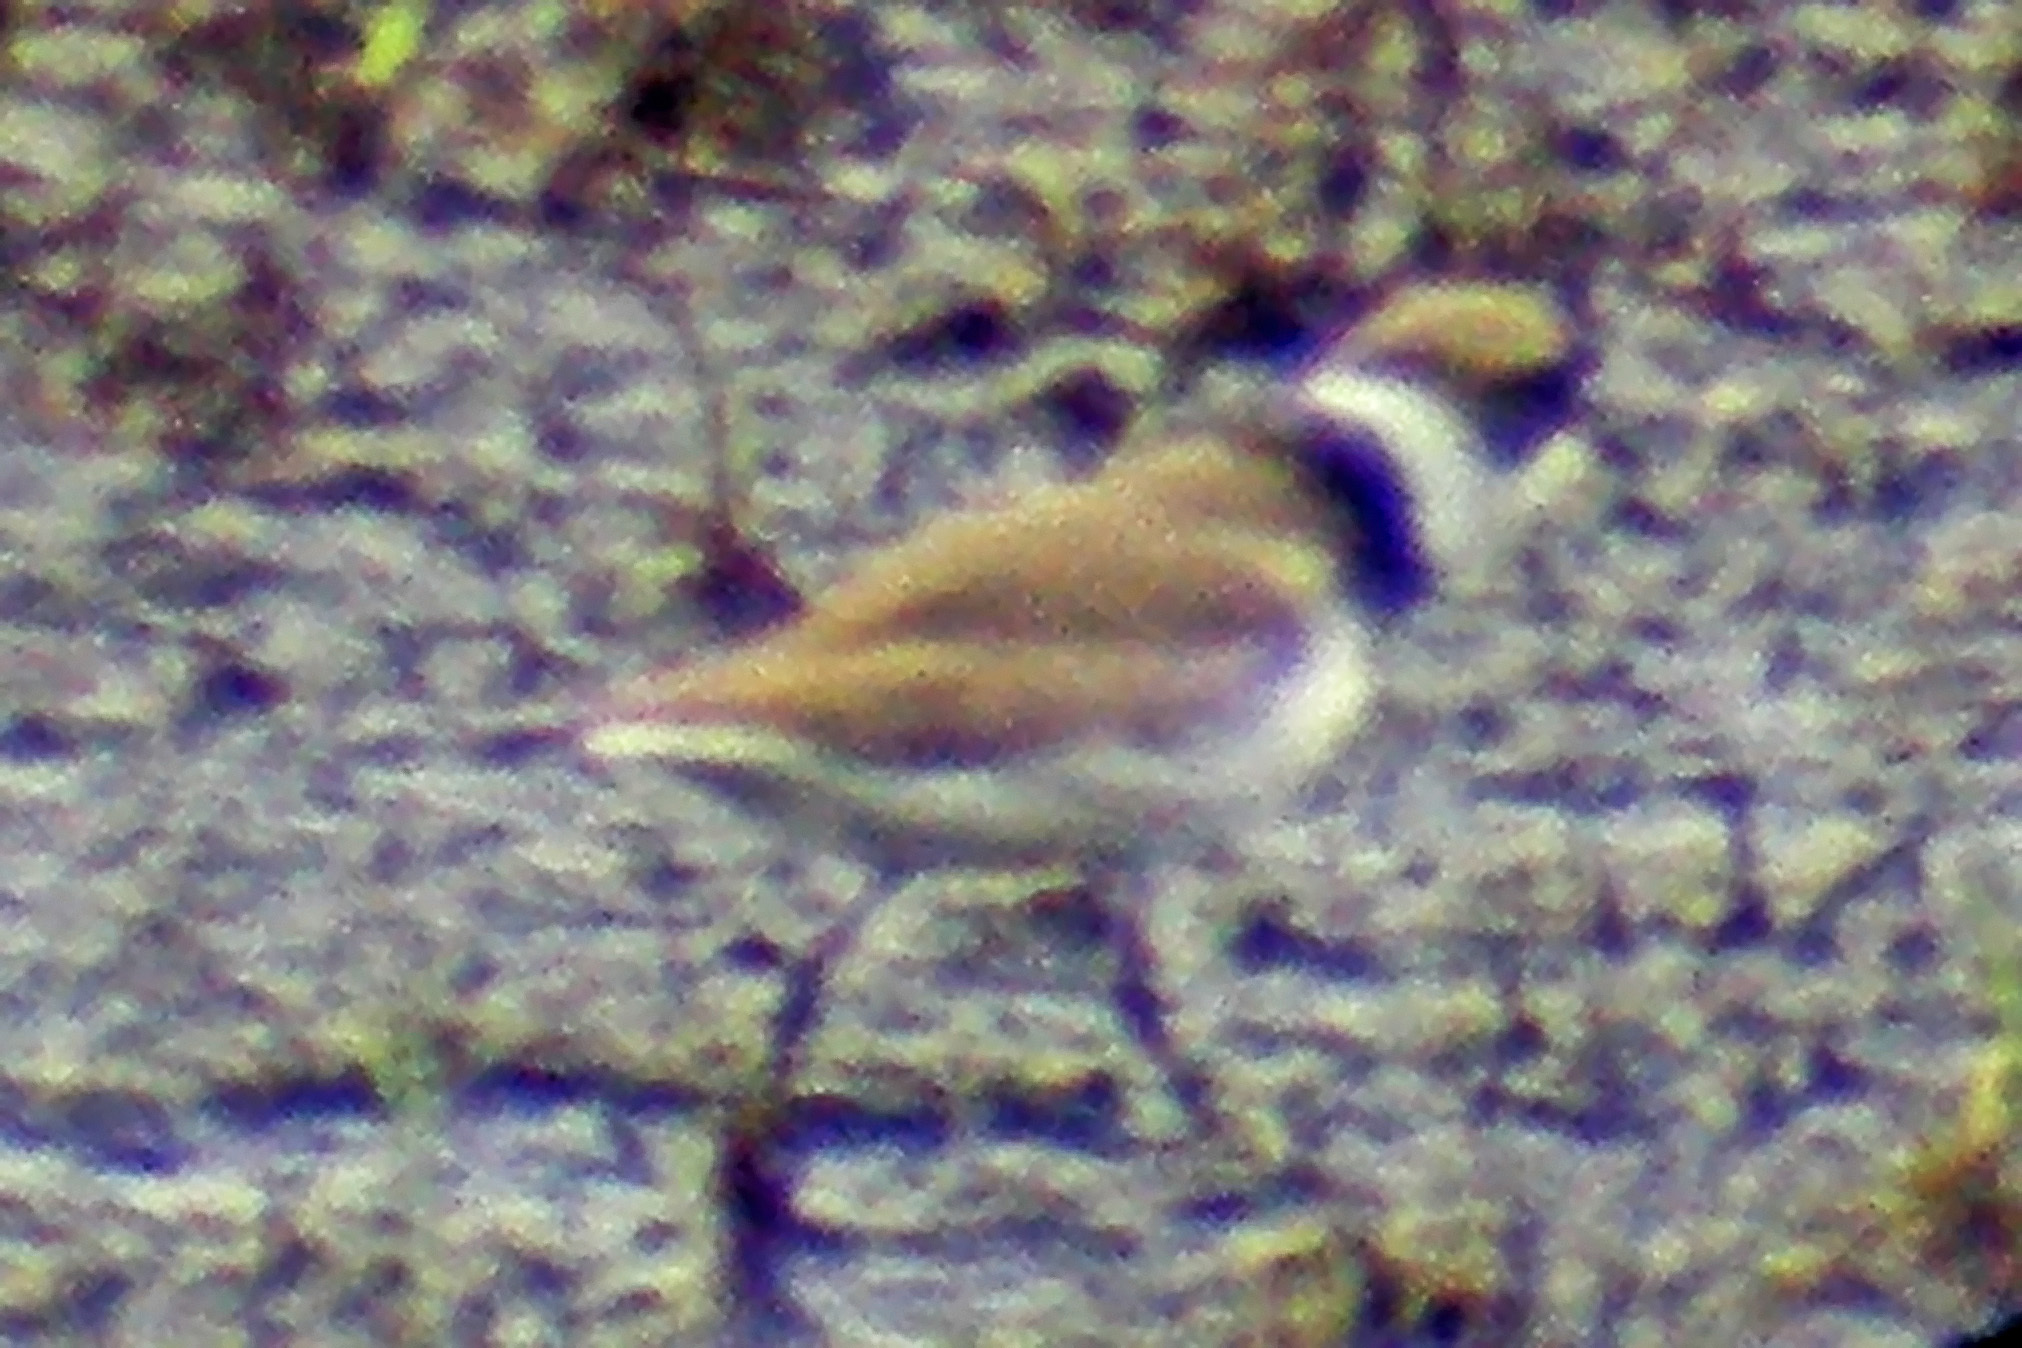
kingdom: Animalia
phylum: Chordata
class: Aves
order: Charadriiformes
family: Charadriidae
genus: Charadrius
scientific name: Charadrius semipalmatus
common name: Semipalmated plover
